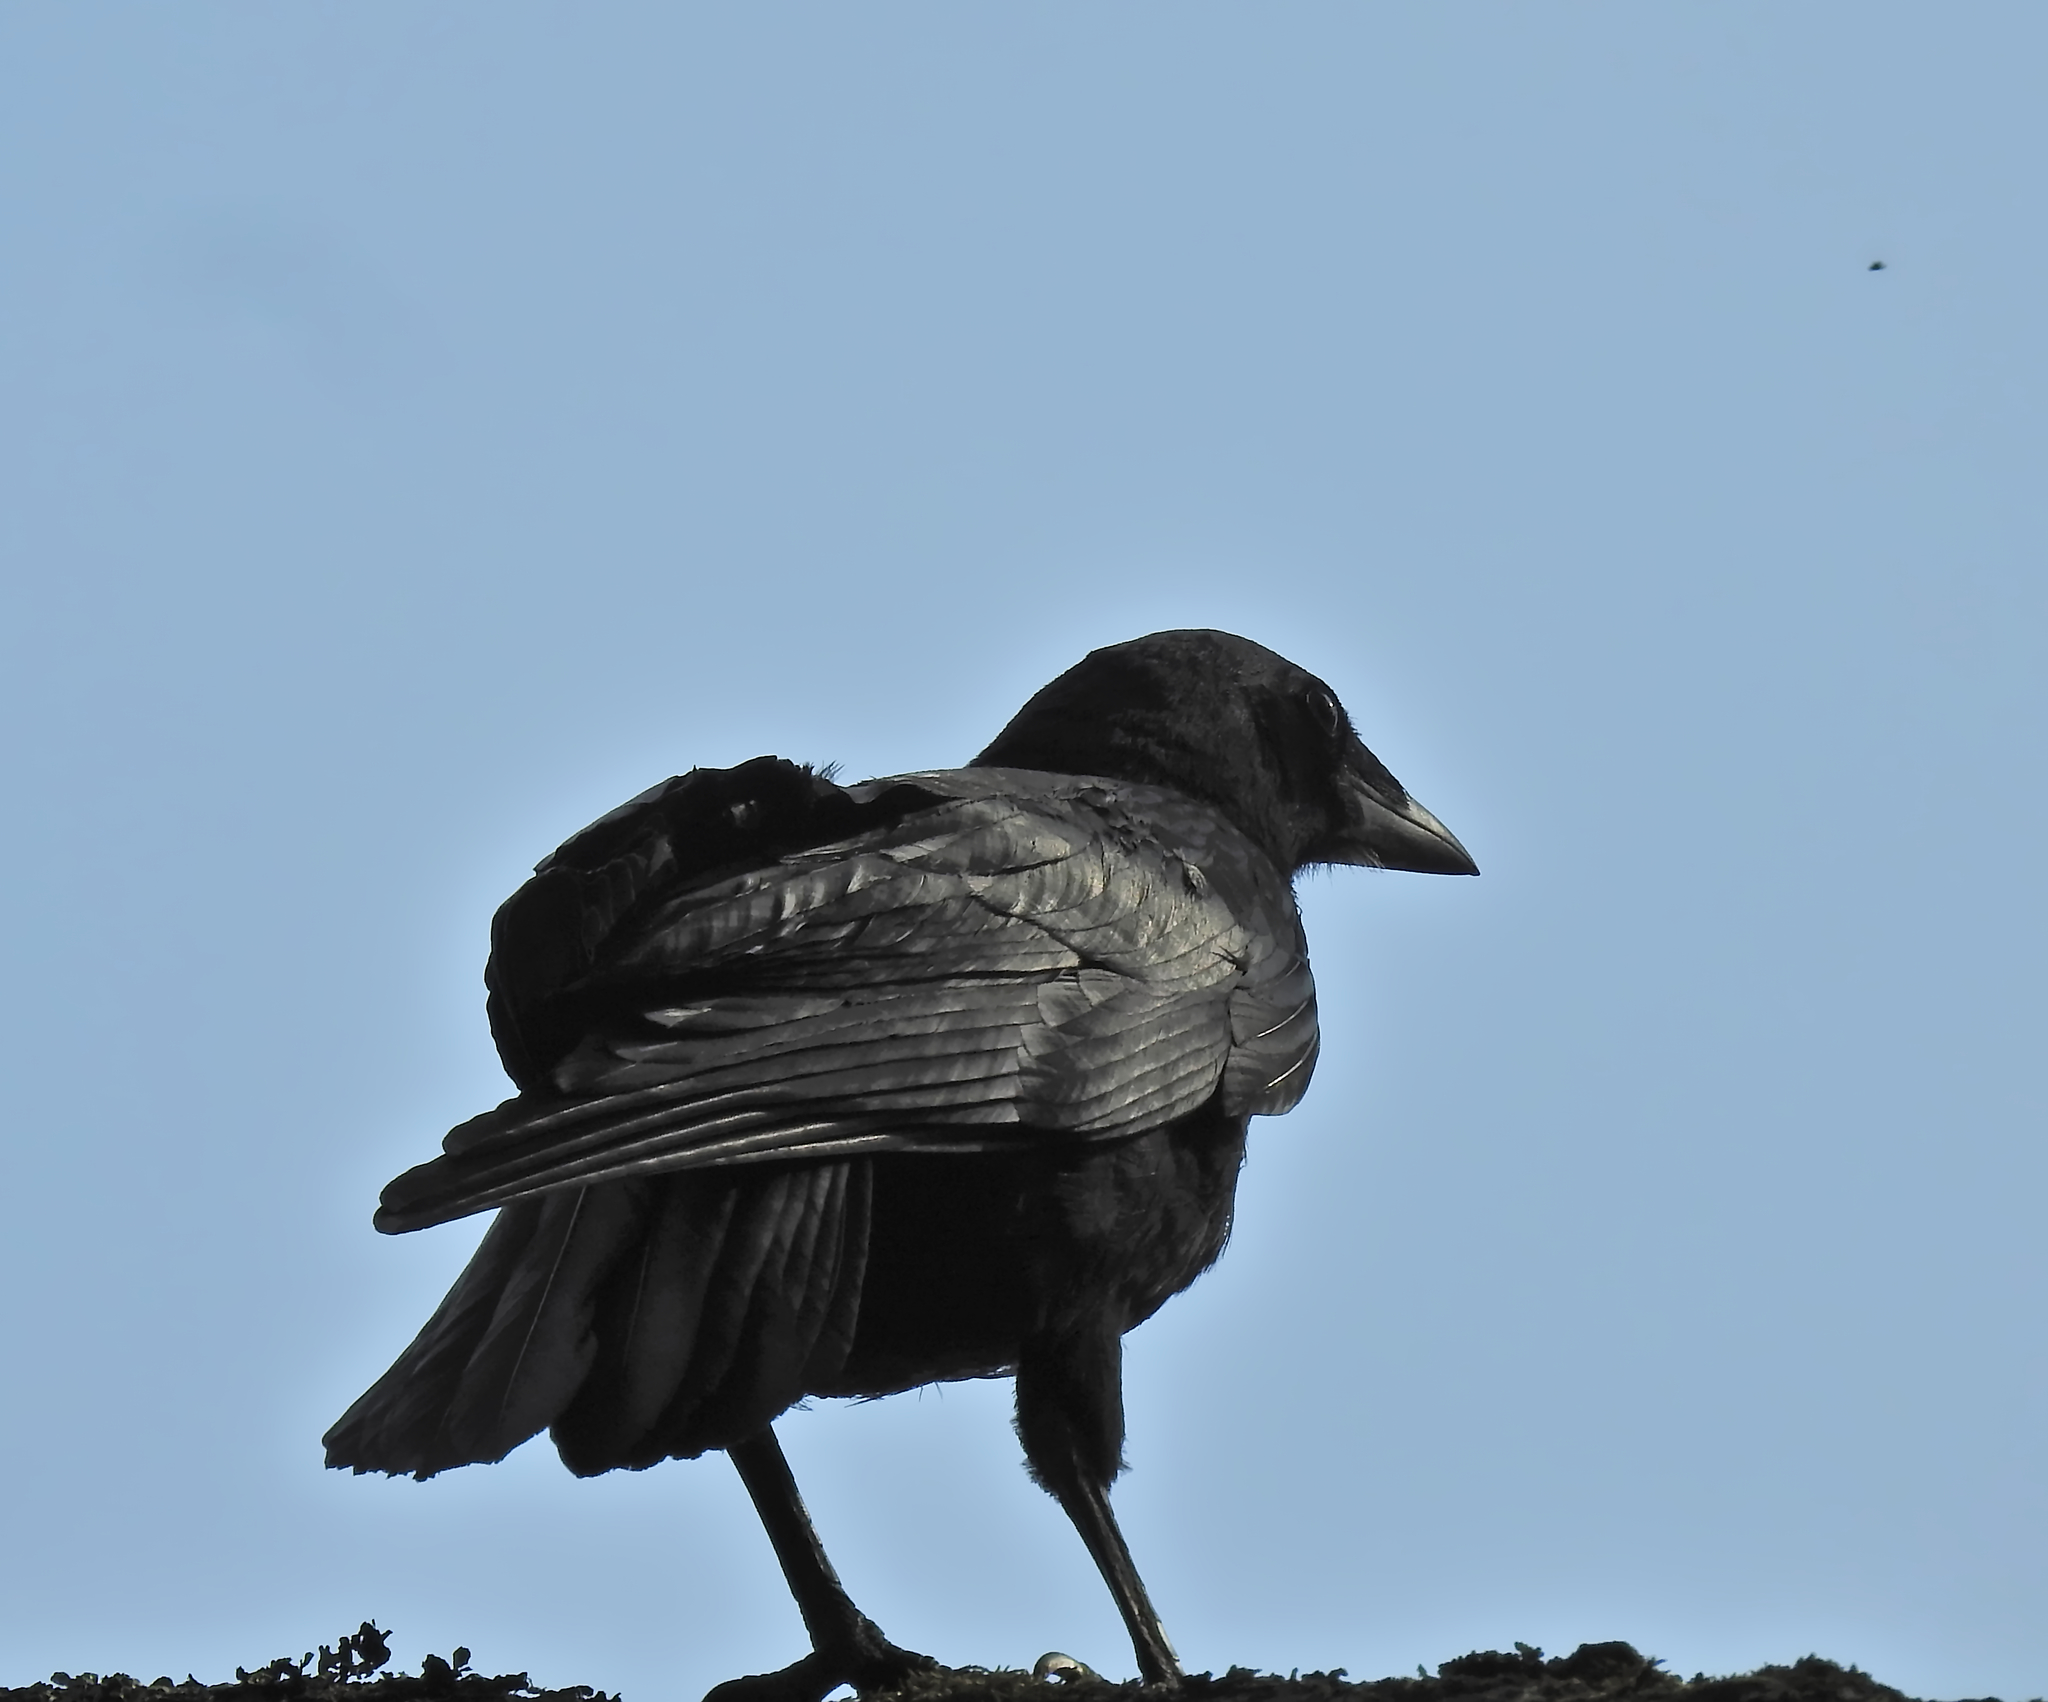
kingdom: Animalia
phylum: Chordata
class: Aves
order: Passeriformes
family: Corvidae
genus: Corvus
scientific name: Corvus frugilegus
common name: Rook
